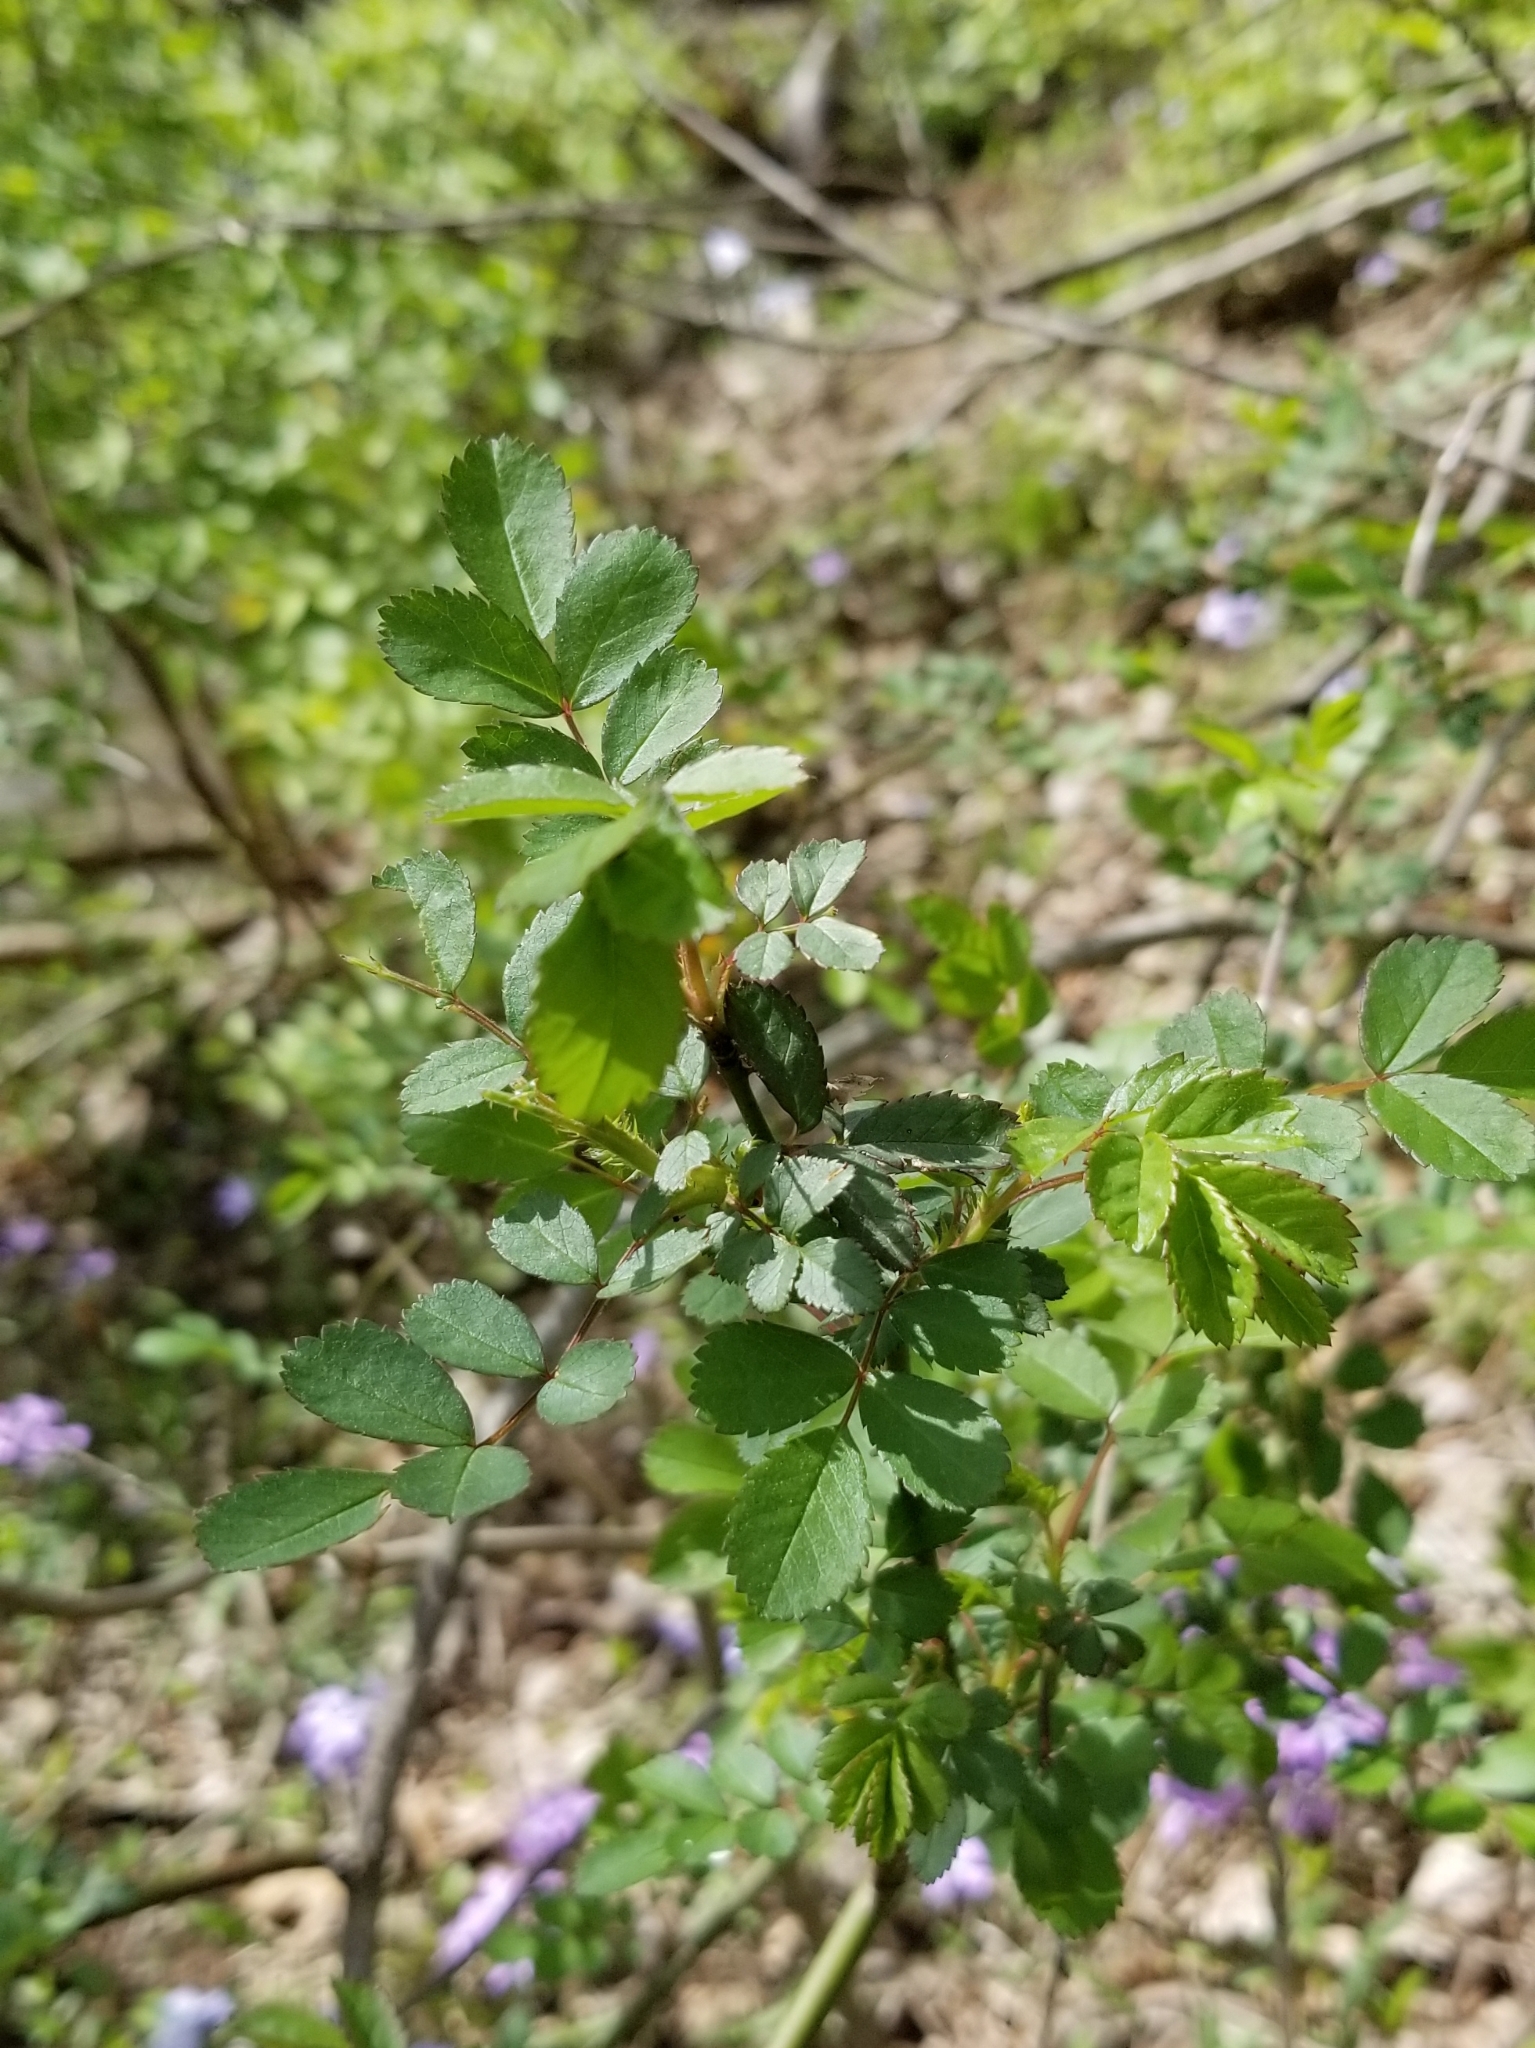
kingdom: Plantae
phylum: Tracheophyta
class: Magnoliopsida
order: Rosales
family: Rosaceae
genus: Rosa
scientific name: Rosa multiflora
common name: Multiflora rose
